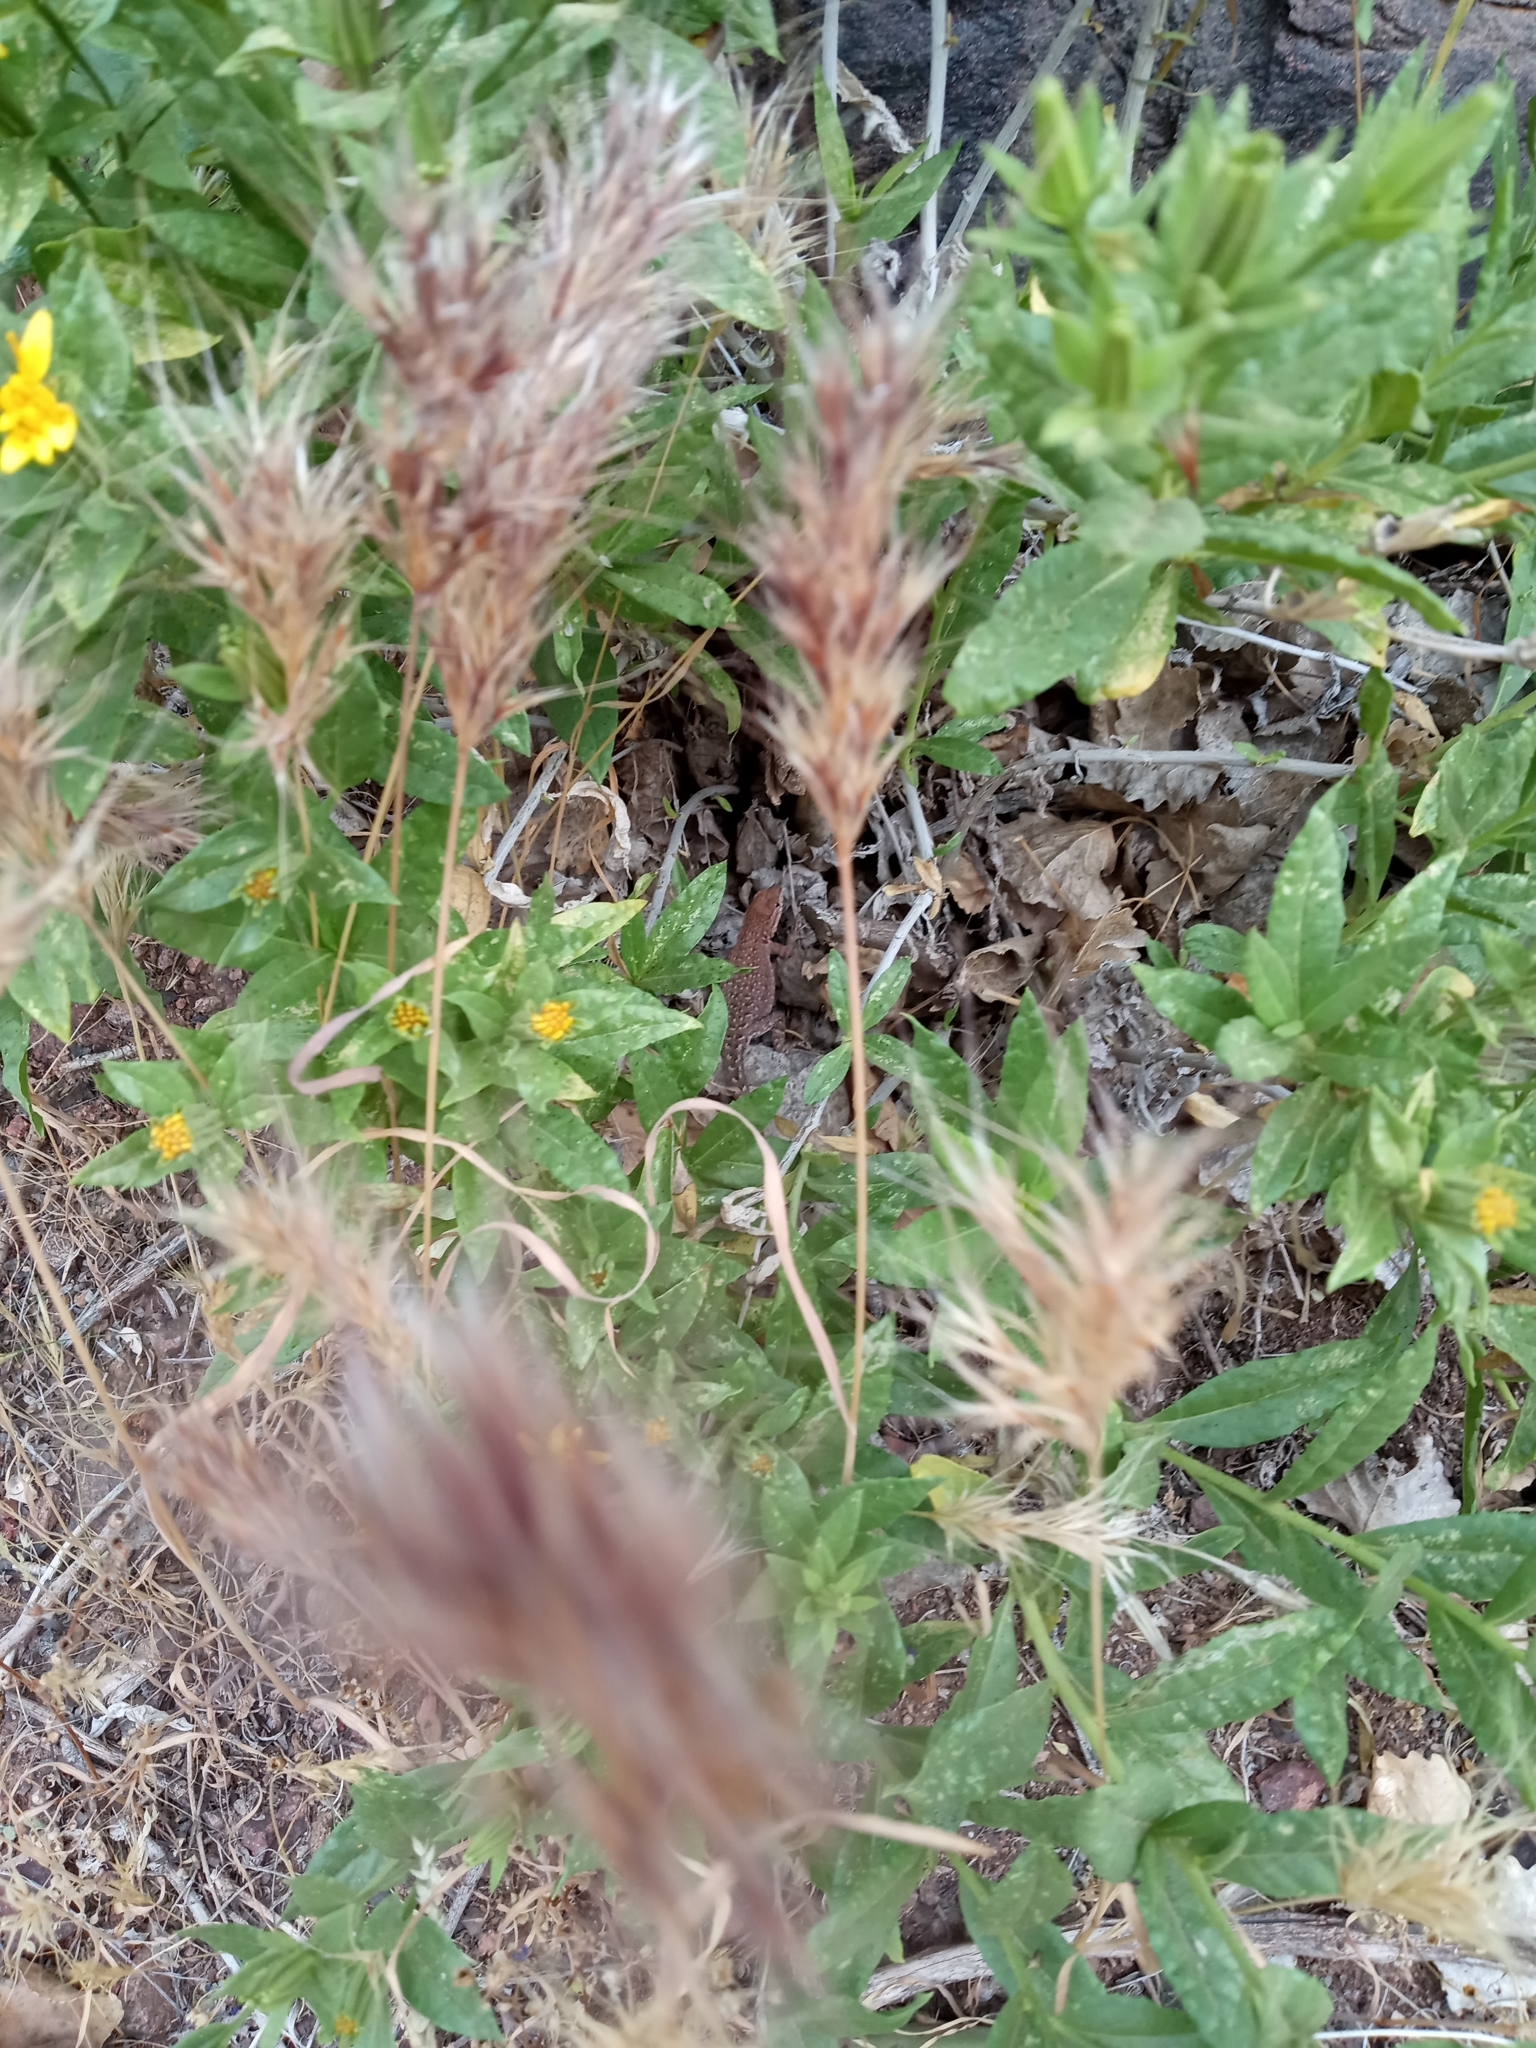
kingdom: Animalia
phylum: Chordata
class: Squamata
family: Phrynosomatidae
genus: Uta
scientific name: Uta stansburiana
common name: Side-blotched lizard
